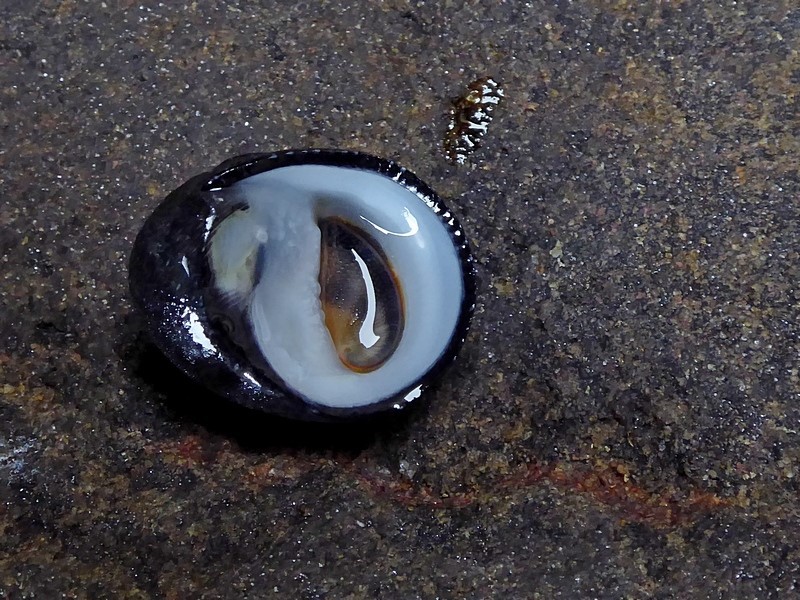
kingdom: Animalia
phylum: Mollusca
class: Gastropoda
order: Cycloneritida
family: Neritidae
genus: Nerita
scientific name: Nerita melanotragus
